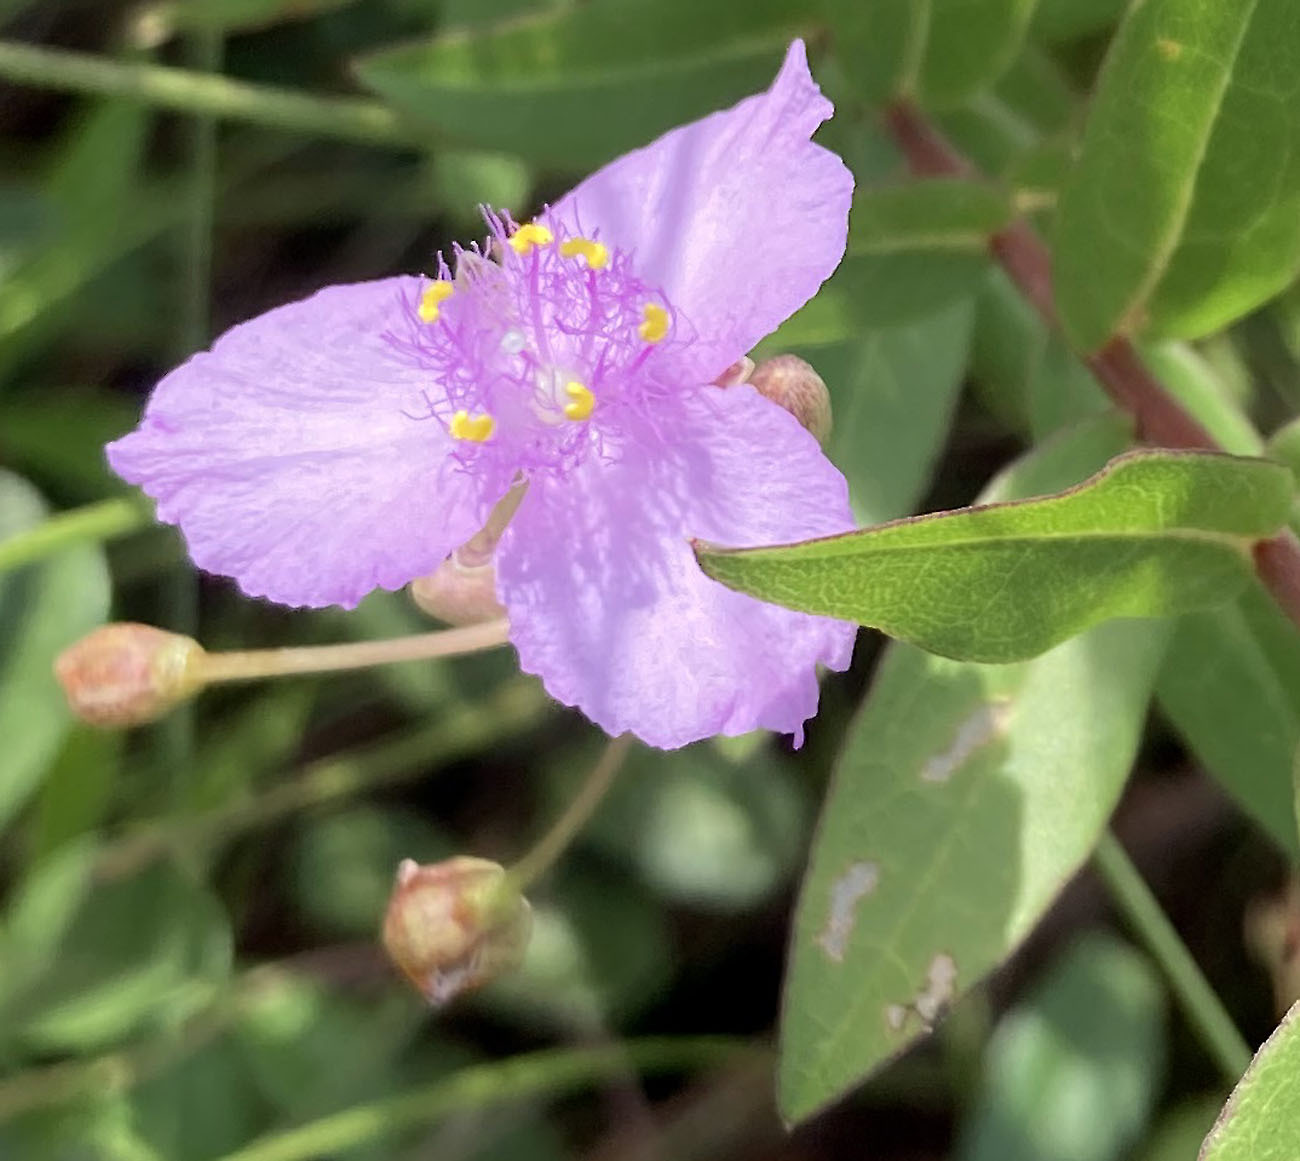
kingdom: Plantae
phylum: Tracheophyta
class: Liliopsida
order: Commelinales
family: Commelinaceae
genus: Callisia
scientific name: Callisia ornata
